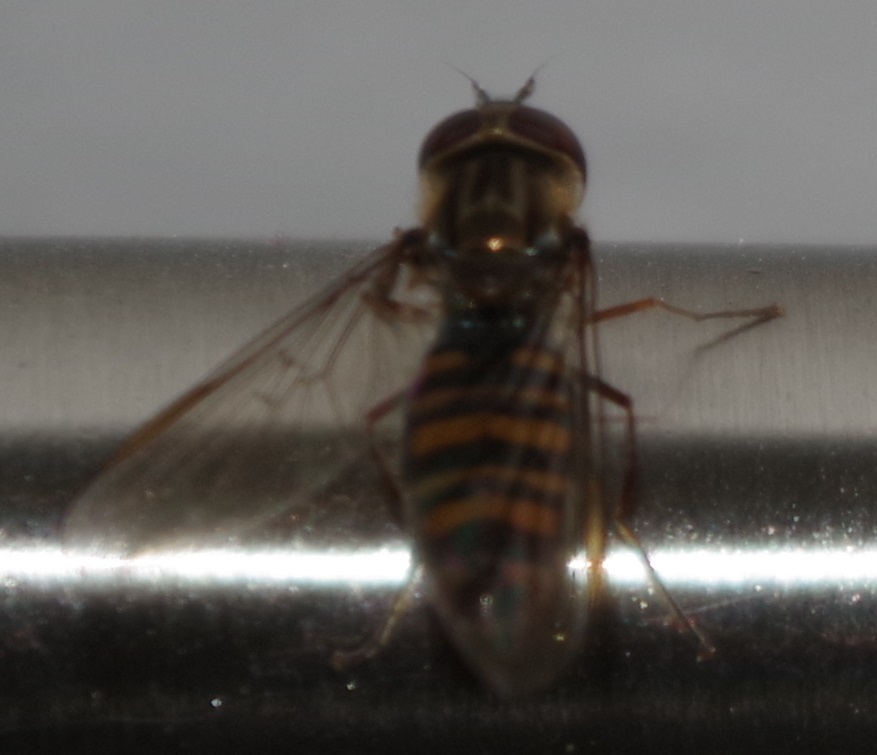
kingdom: Animalia
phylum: Arthropoda
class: Insecta
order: Diptera
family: Syrphidae
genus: Episyrphus
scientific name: Episyrphus balteatus
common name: Marmalade hoverfly
